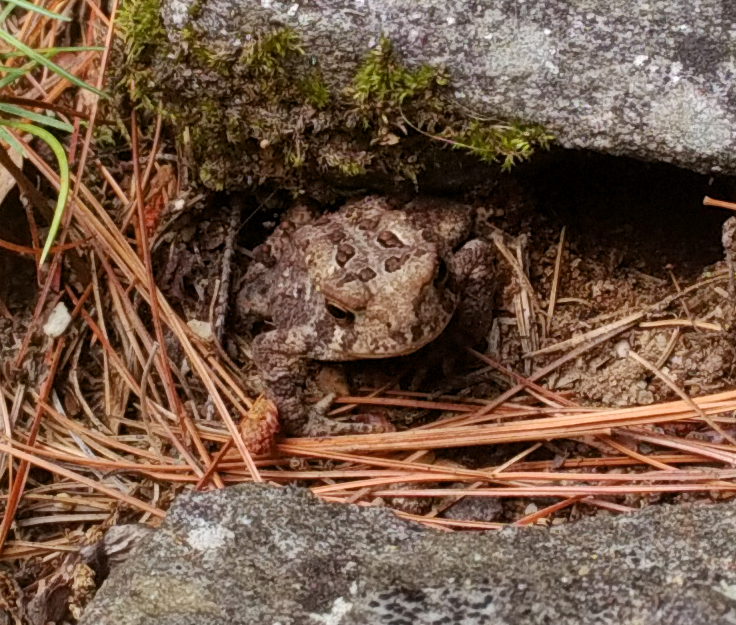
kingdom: Animalia
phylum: Chordata
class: Amphibia
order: Anura
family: Bufonidae
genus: Anaxyrus
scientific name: Anaxyrus americanus
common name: American toad
